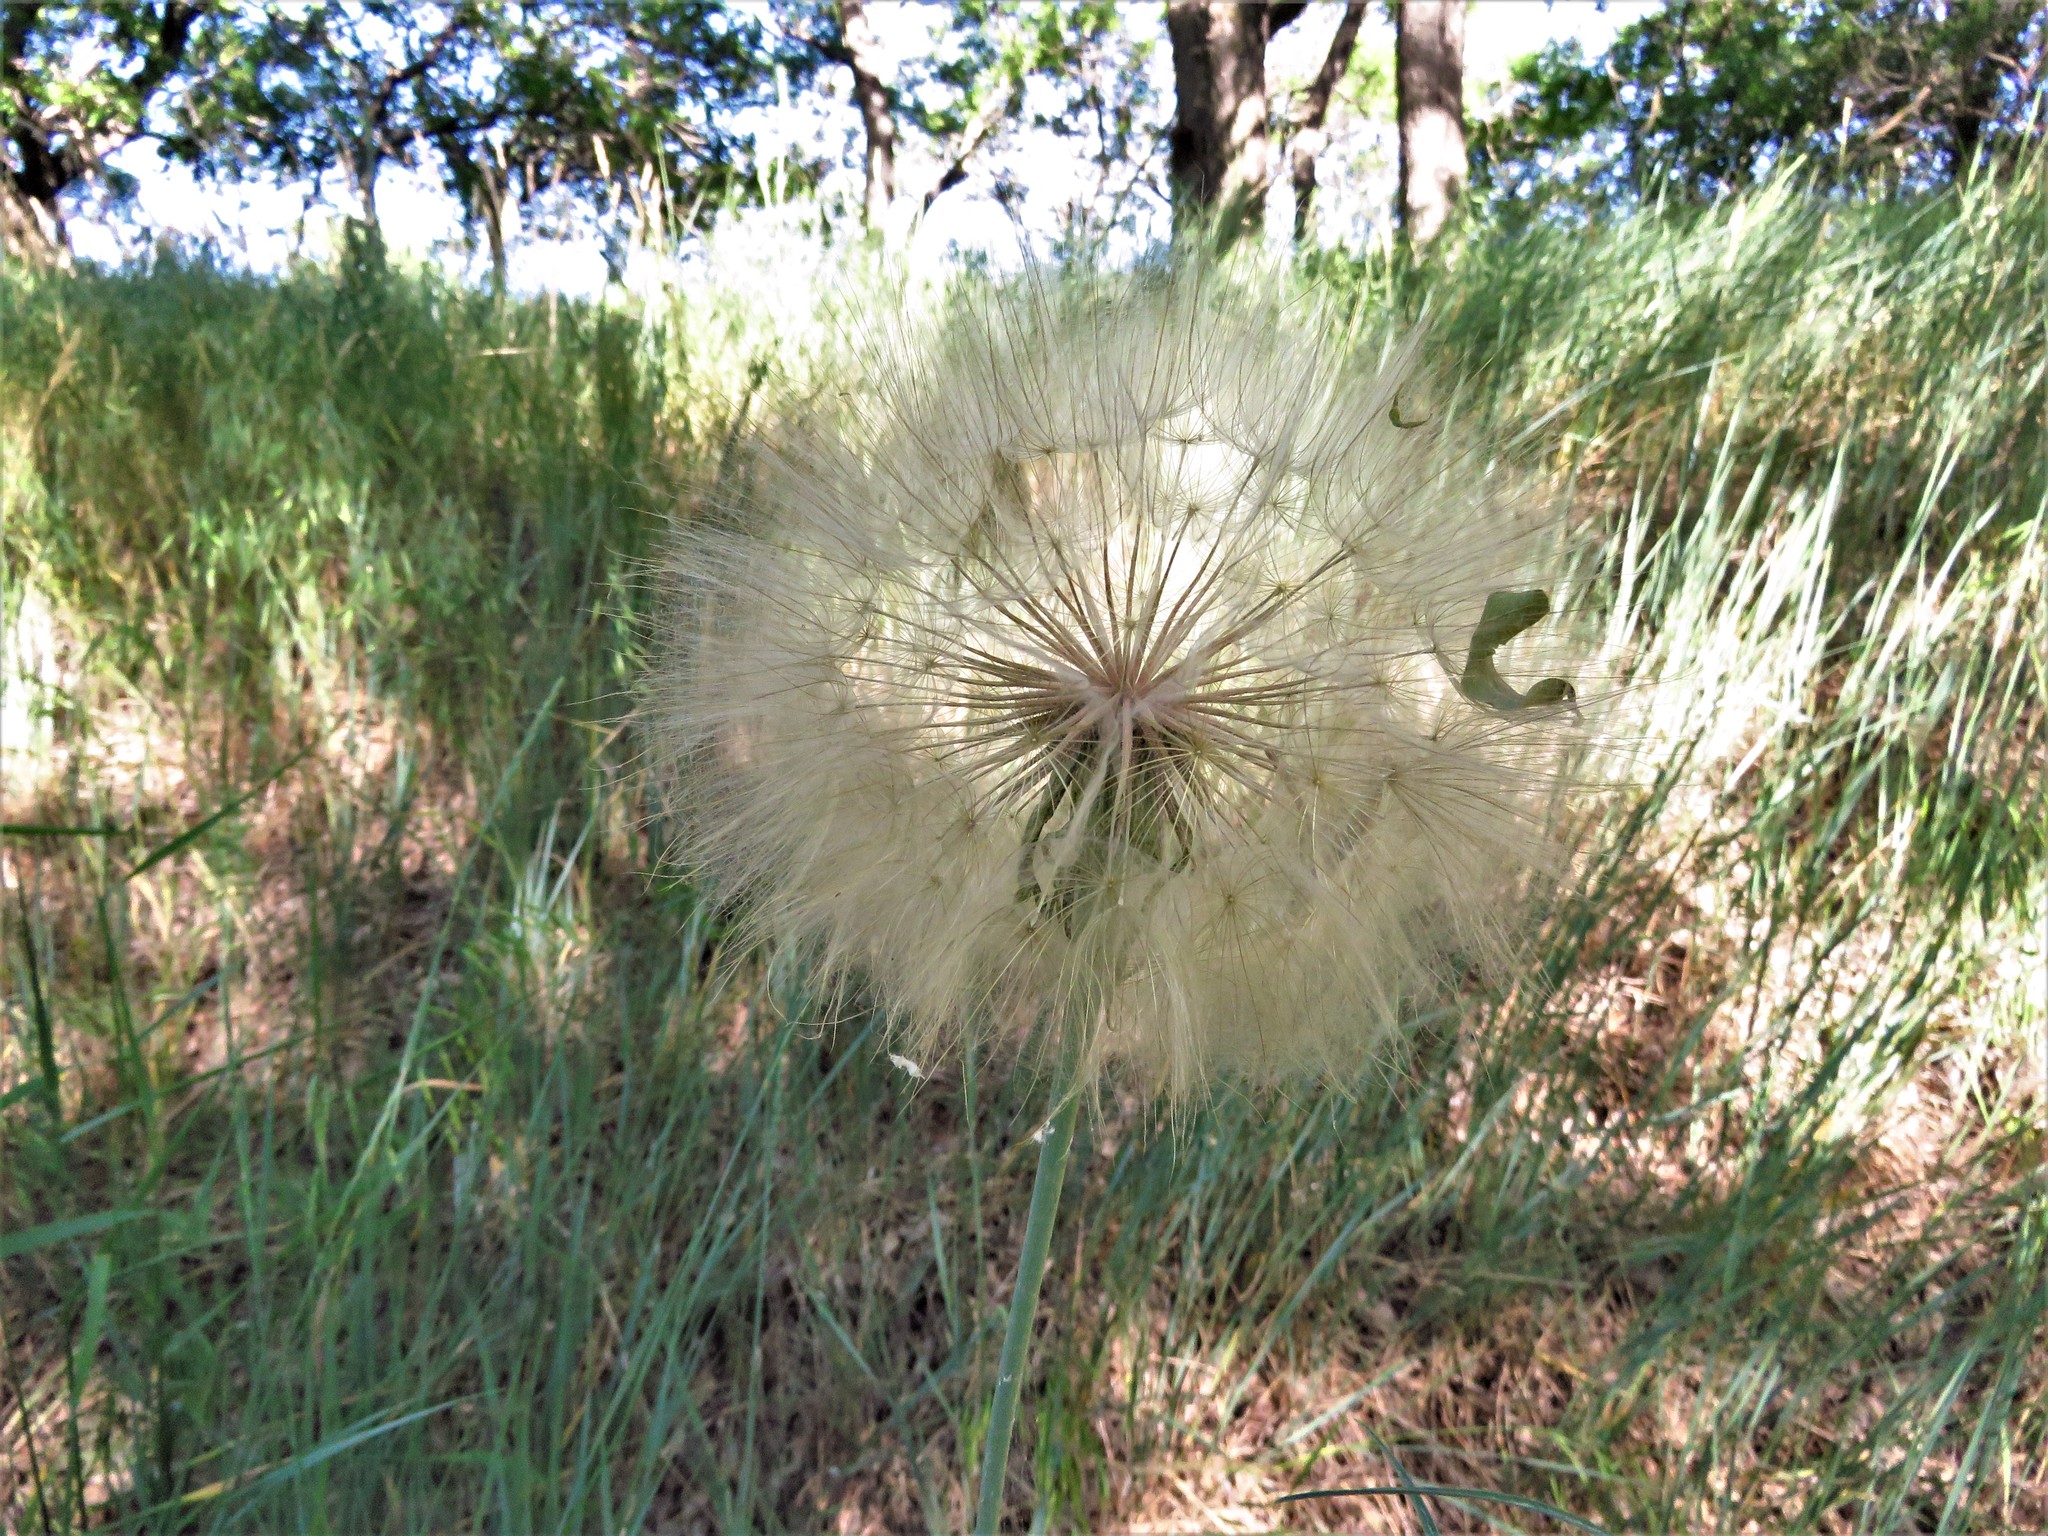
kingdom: Plantae
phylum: Tracheophyta
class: Magnoliopsida
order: Asterales
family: Asteraceae
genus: Tragopogon
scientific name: Tragopogon dubius
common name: Yellow salsify
